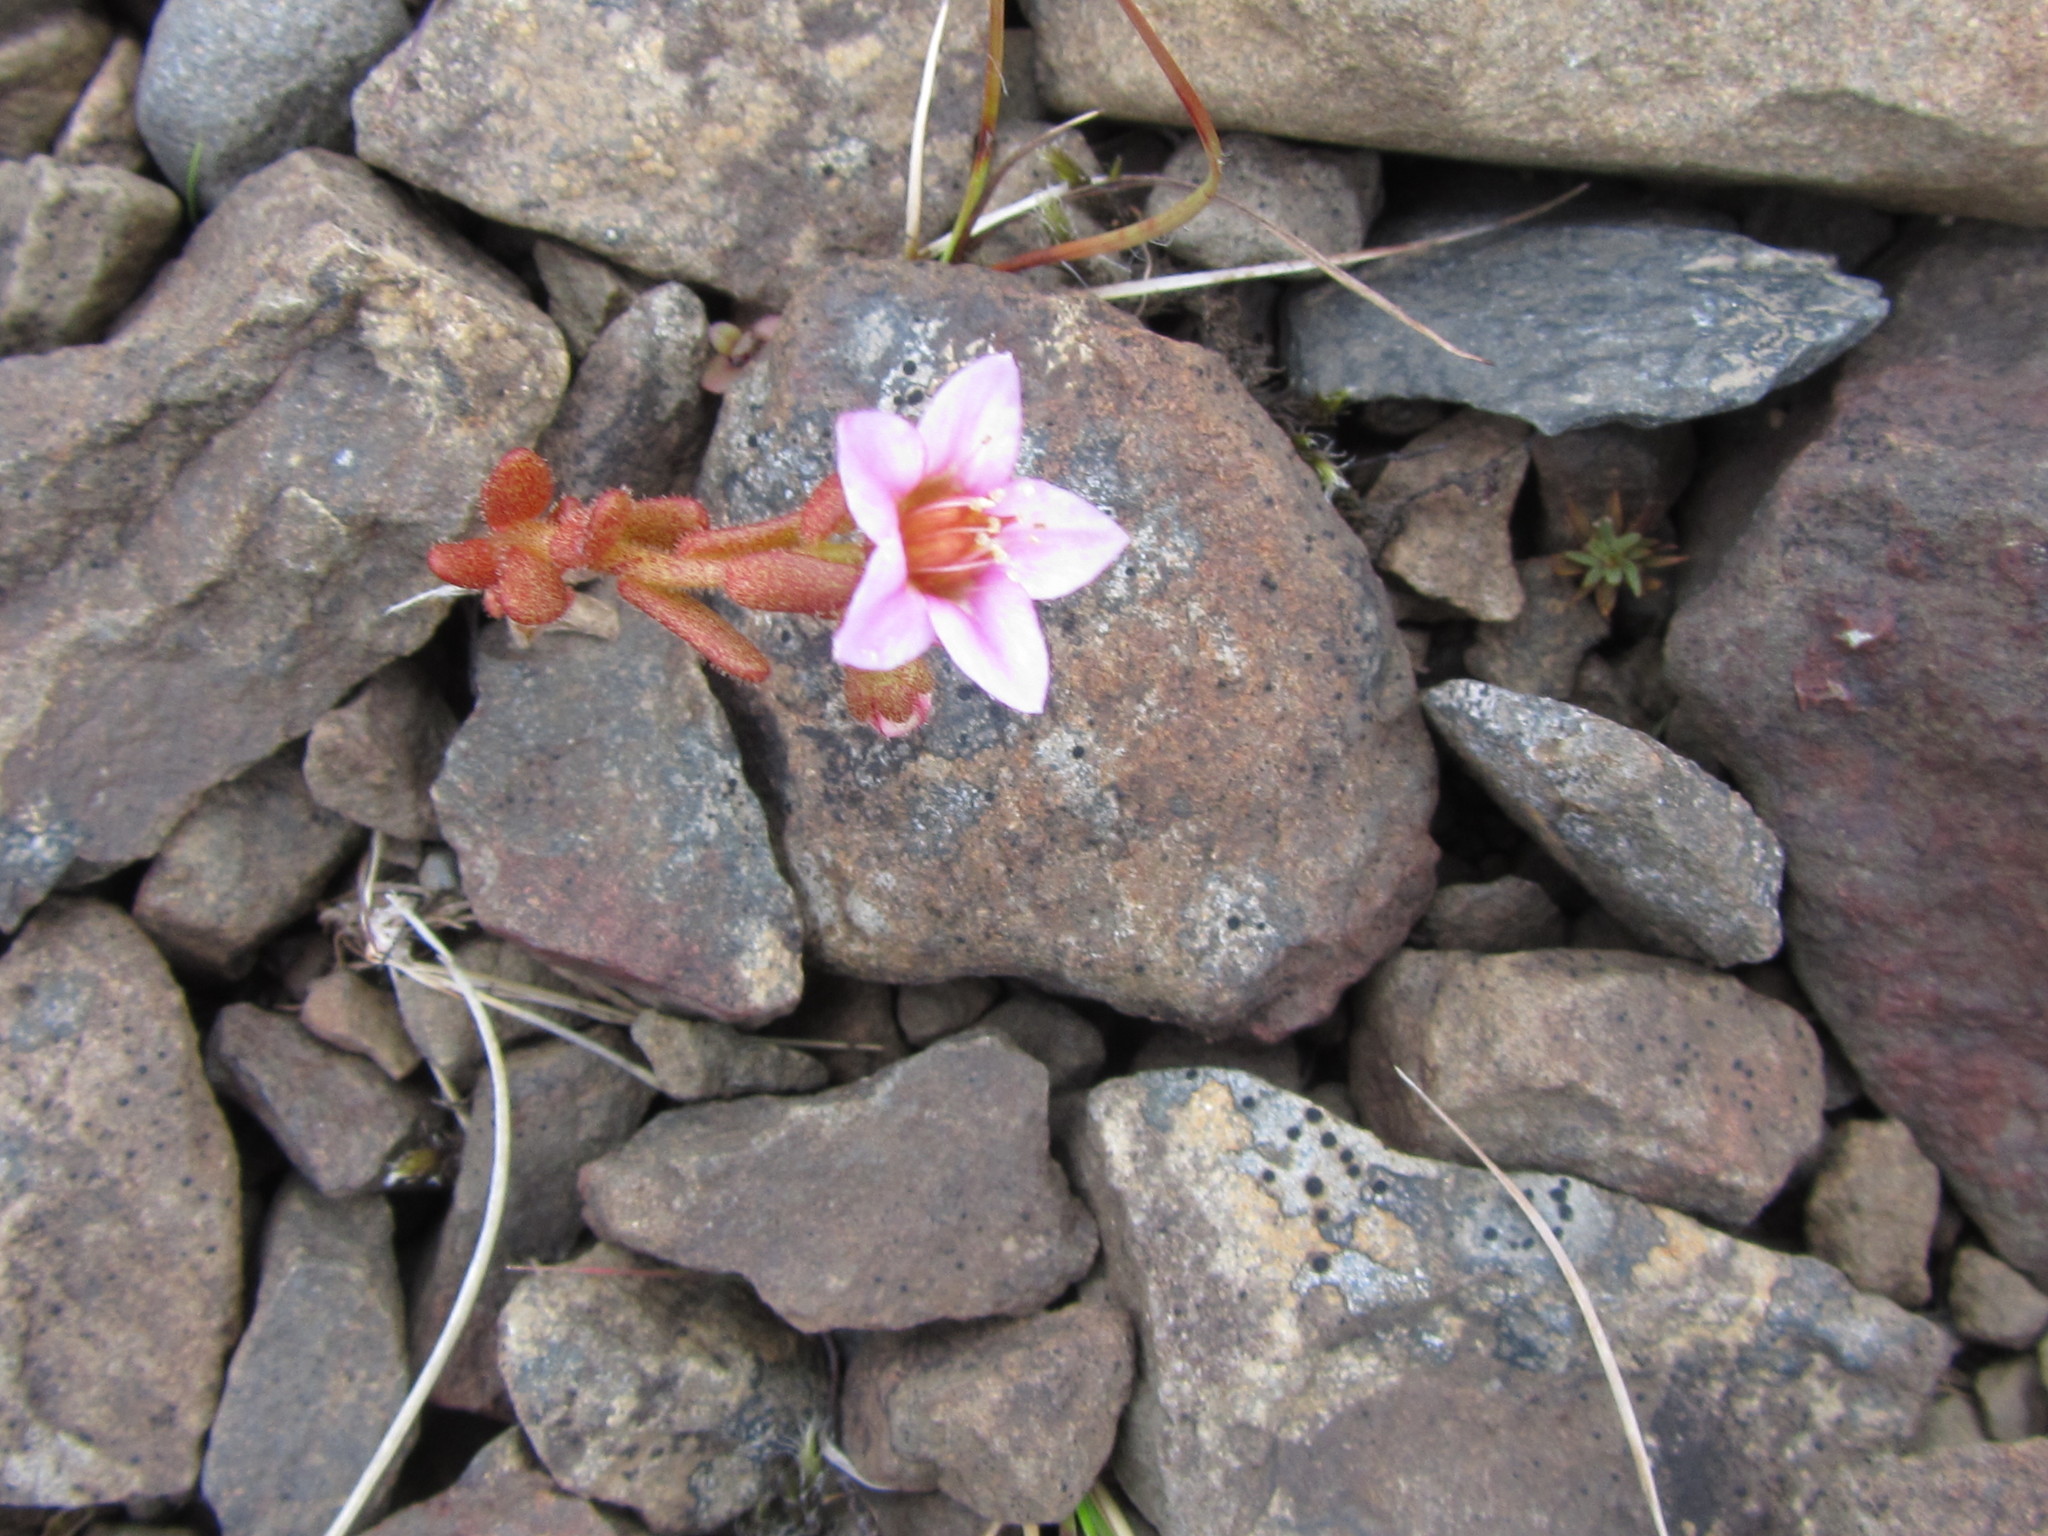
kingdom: Plantae
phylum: Tracheophyta
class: Magnoliopsida
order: Saxifragales
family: Crassulaceae
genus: Sedum
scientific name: Sedum villosum
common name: Hairy stonecrop
